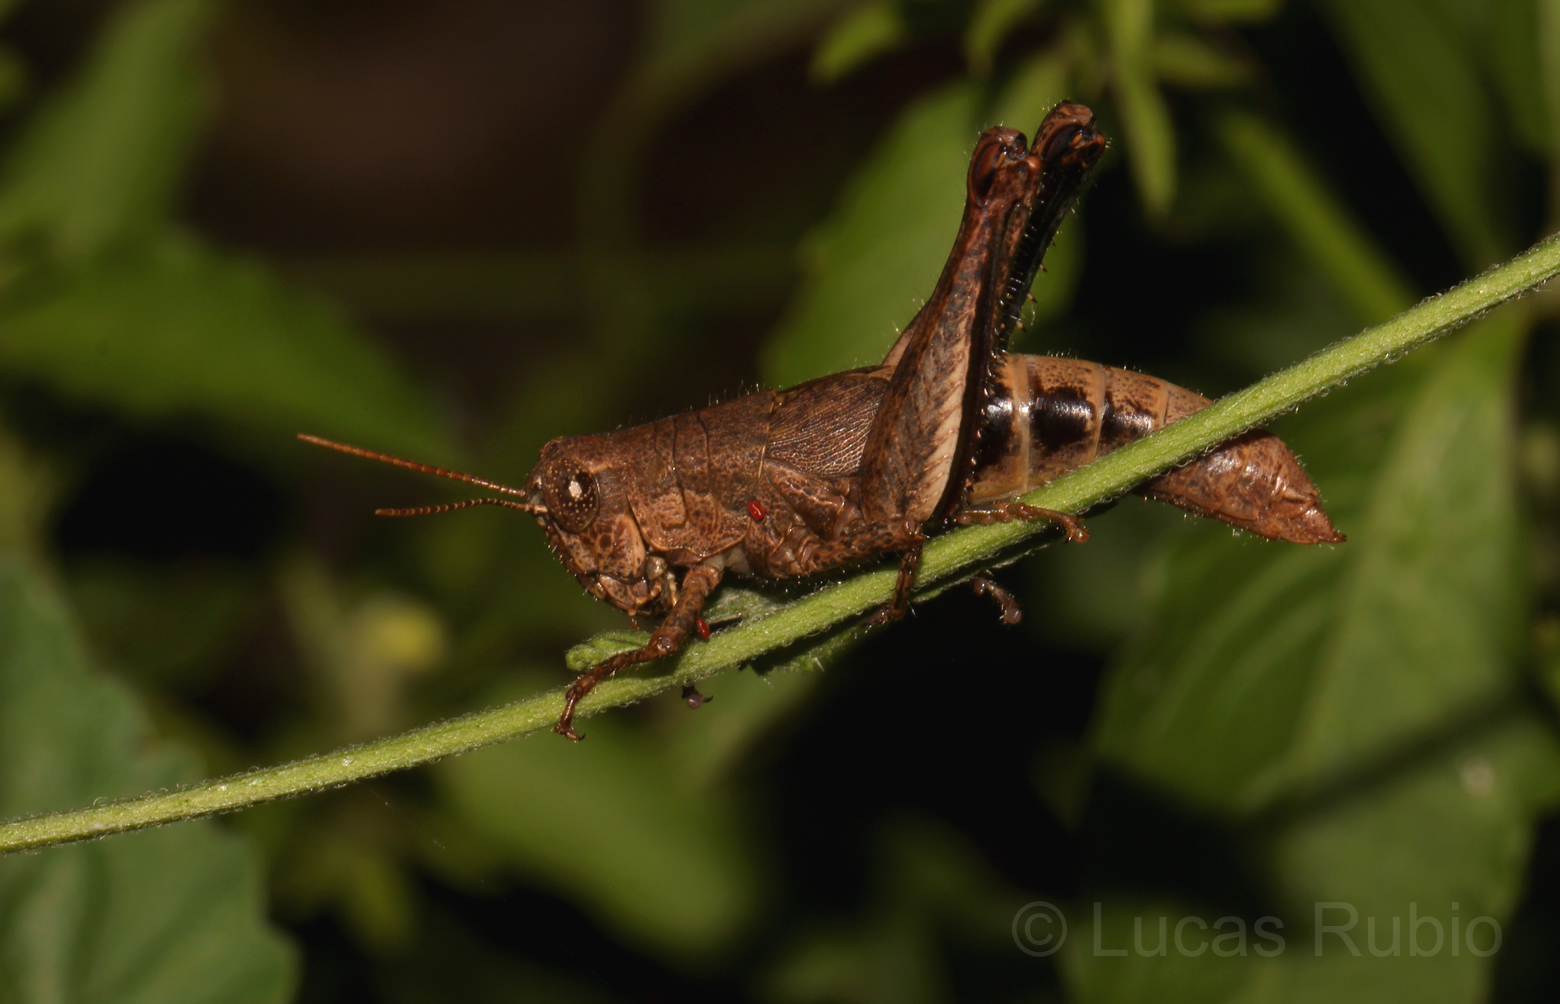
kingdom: Animalia
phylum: Arthropoda
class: Insecta
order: Orthoptera
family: Acrididae
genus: Dichromatos
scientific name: Dichromatos lilloanus
